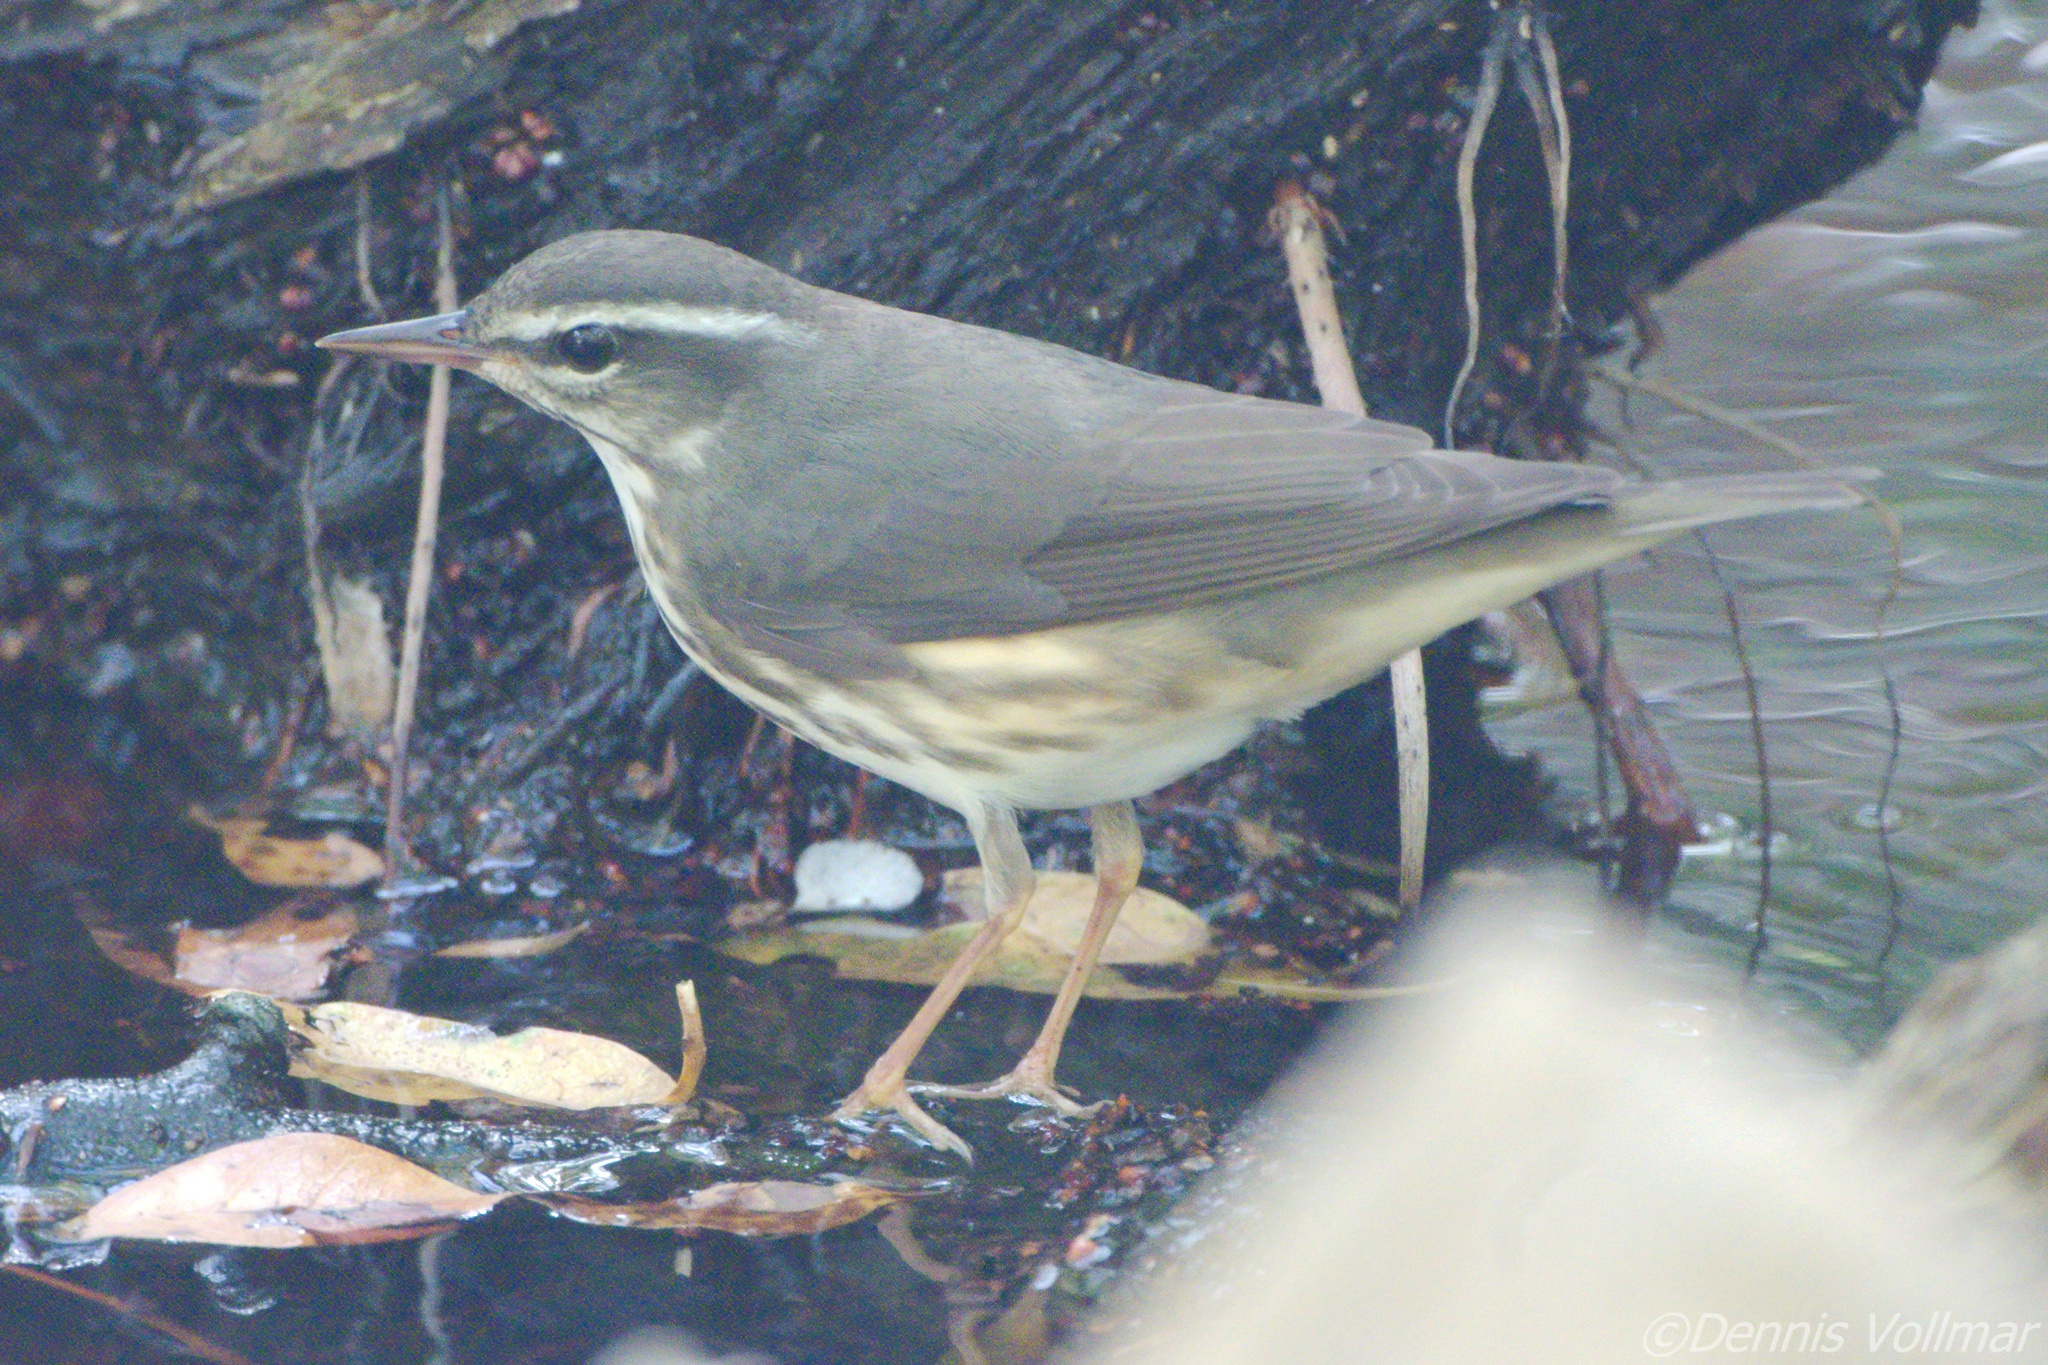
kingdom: Animalia
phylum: Chordata
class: Aves
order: Passeriformes
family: Parulidae
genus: Parkesia
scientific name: Parkesia motacilla
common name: Louisiana waterthrush
